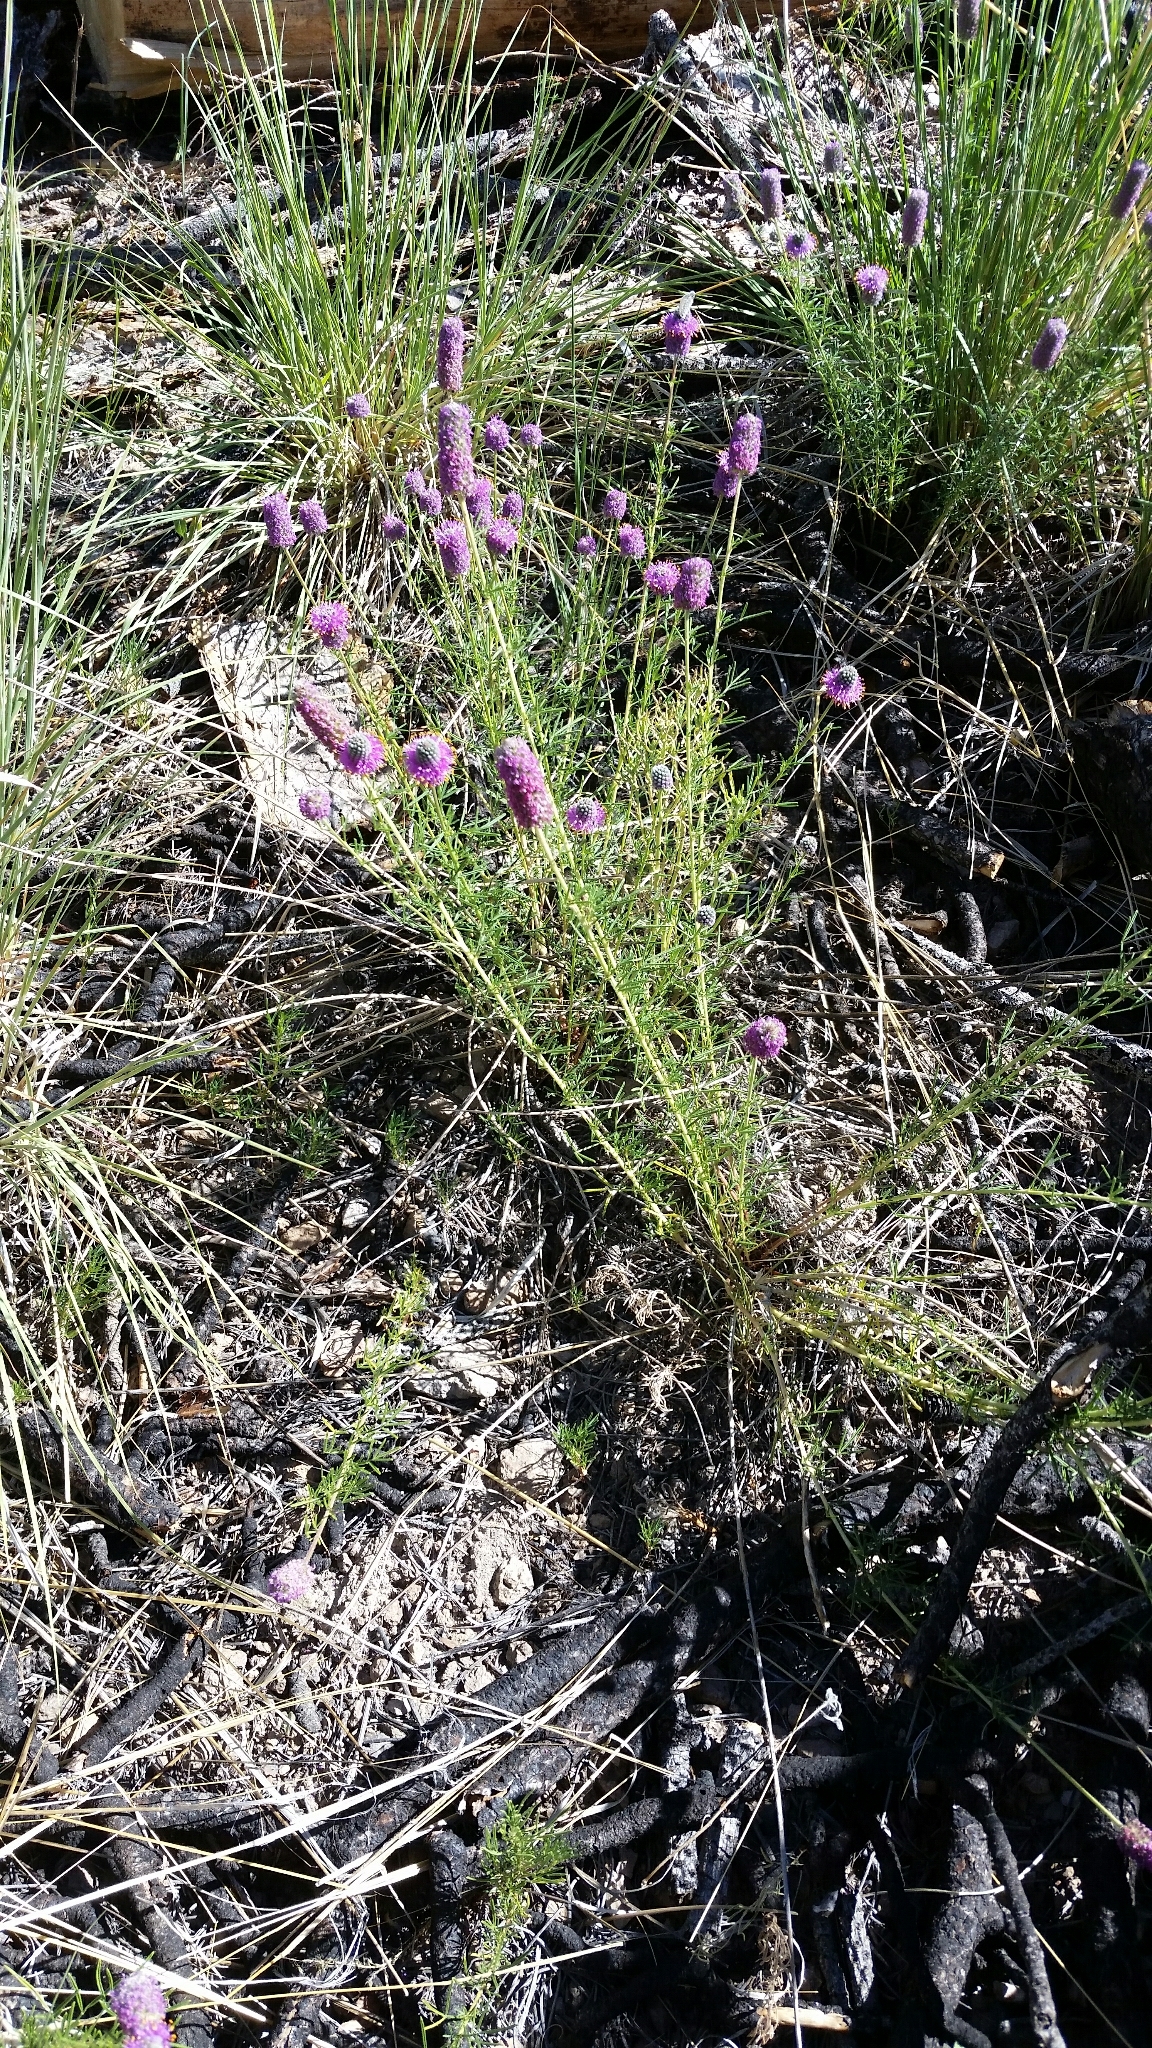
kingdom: Plantae
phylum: Tracheophyta
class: Magnoliopsida
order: Fabales
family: Fabaceae
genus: Dalea
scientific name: Dalea purpurea
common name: Purple prairie-clover
